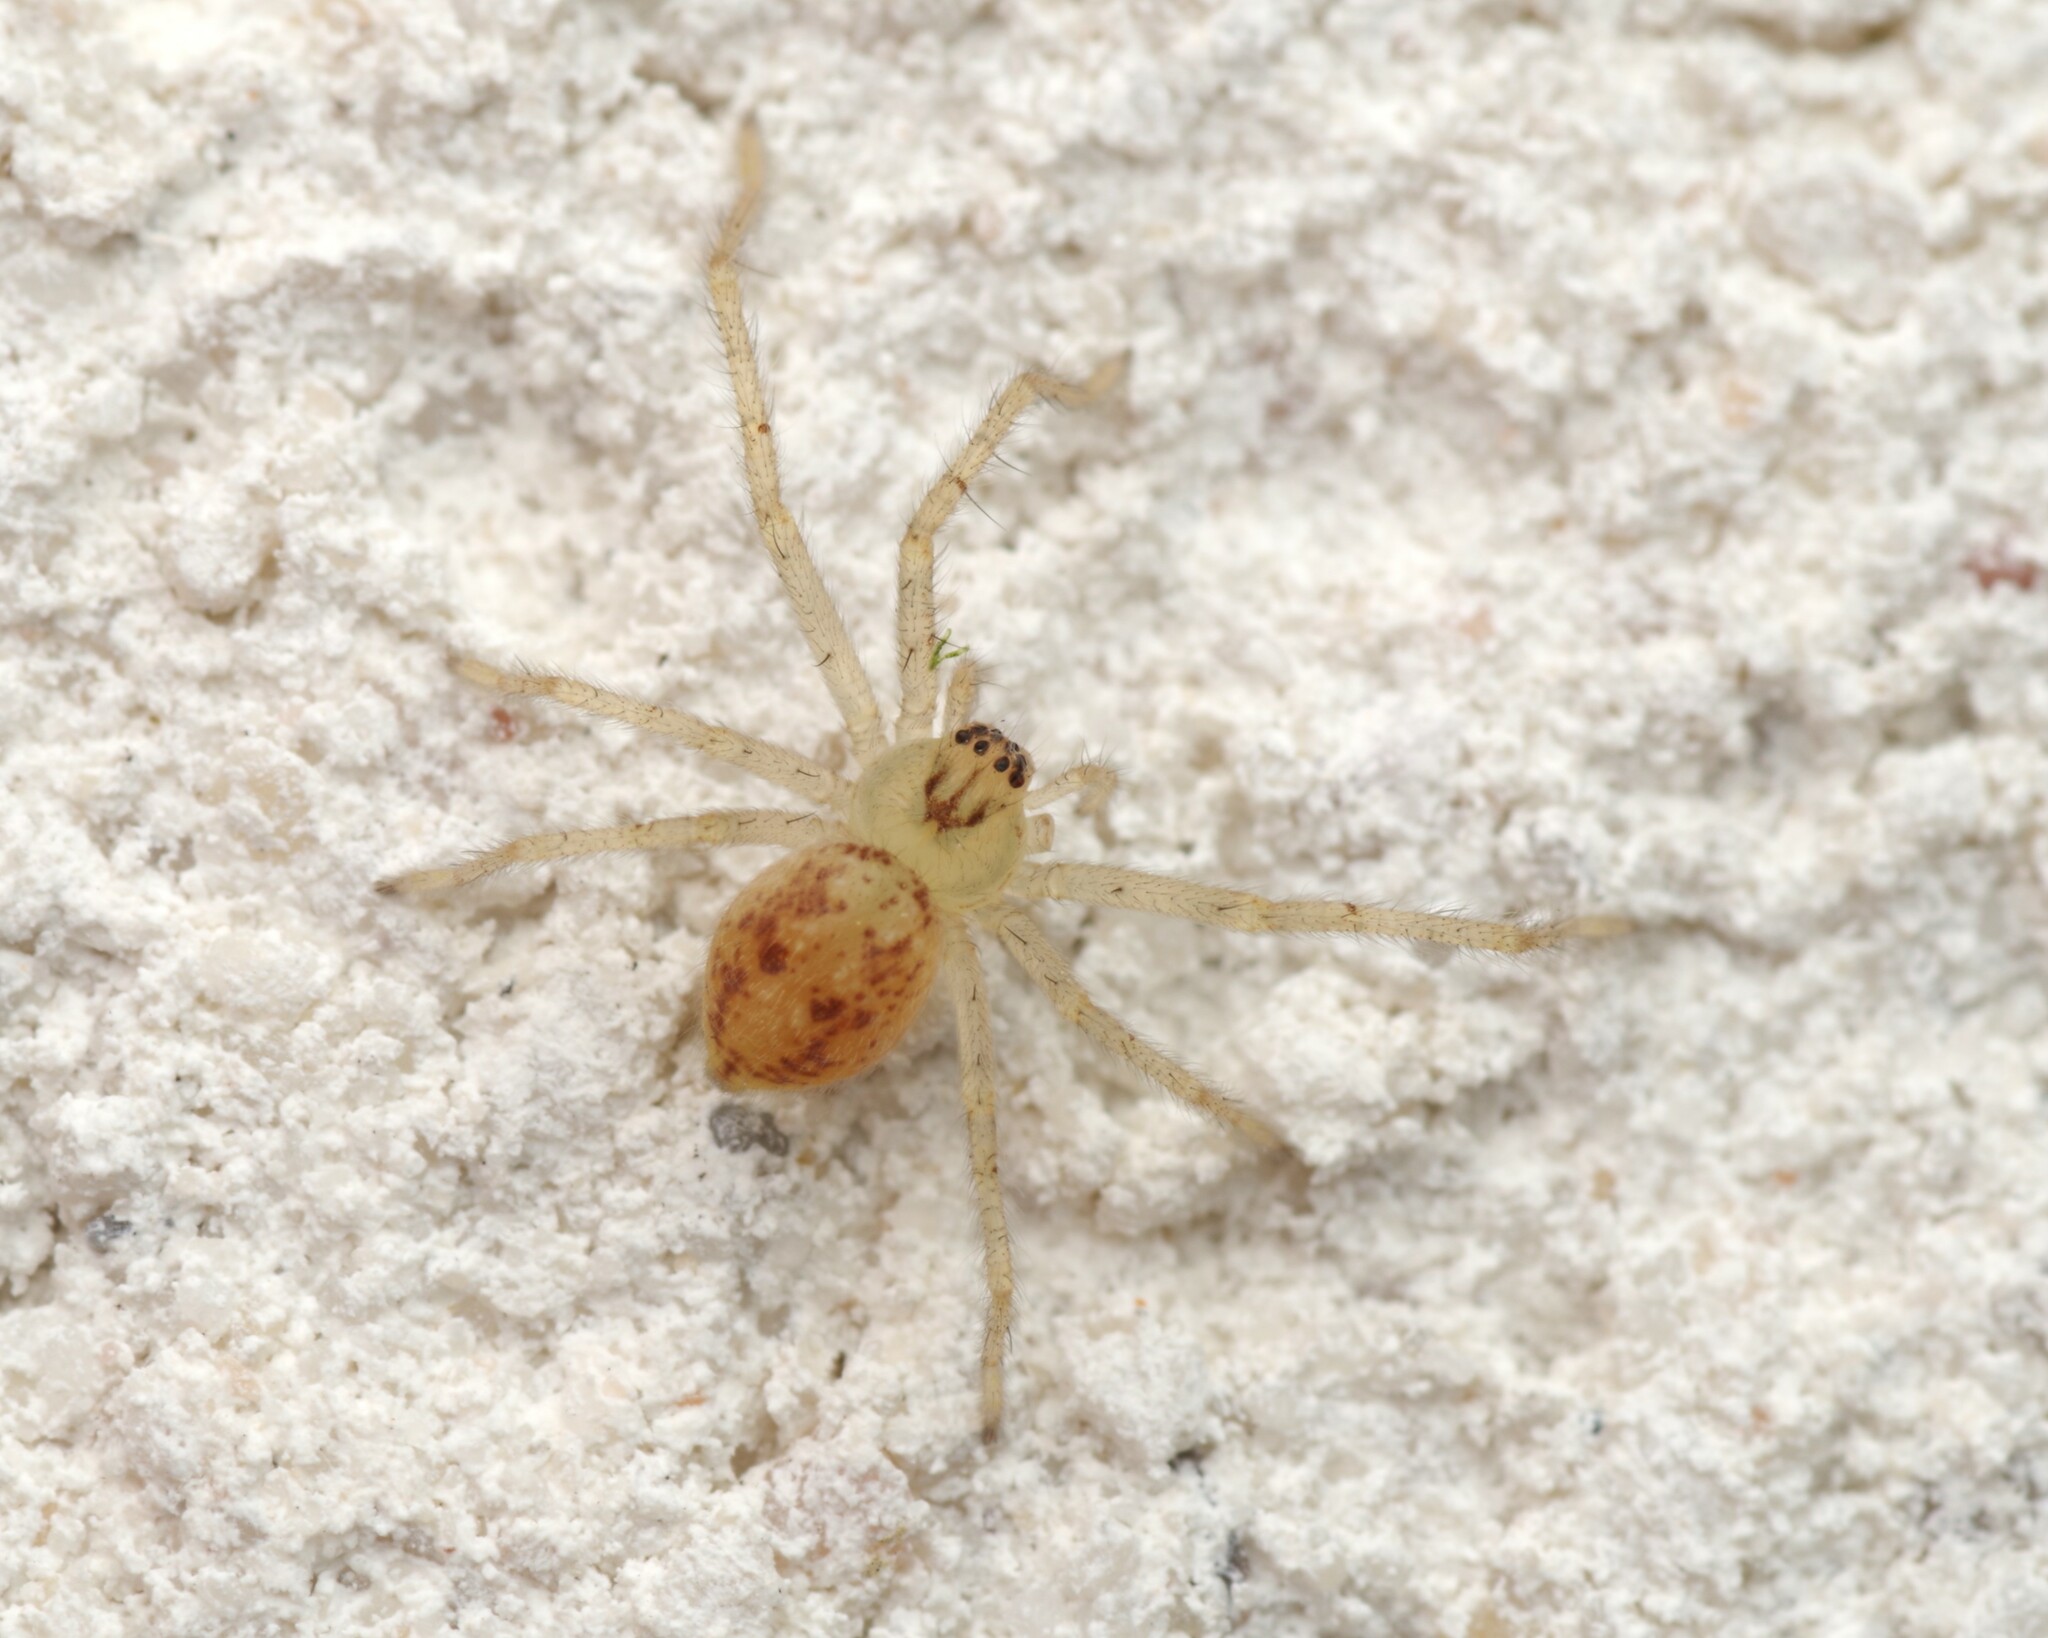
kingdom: Animalia
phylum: Arthropoda
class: Arachnida
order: Araneae
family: Sparassidae
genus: Olios
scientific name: Olios argelasius
